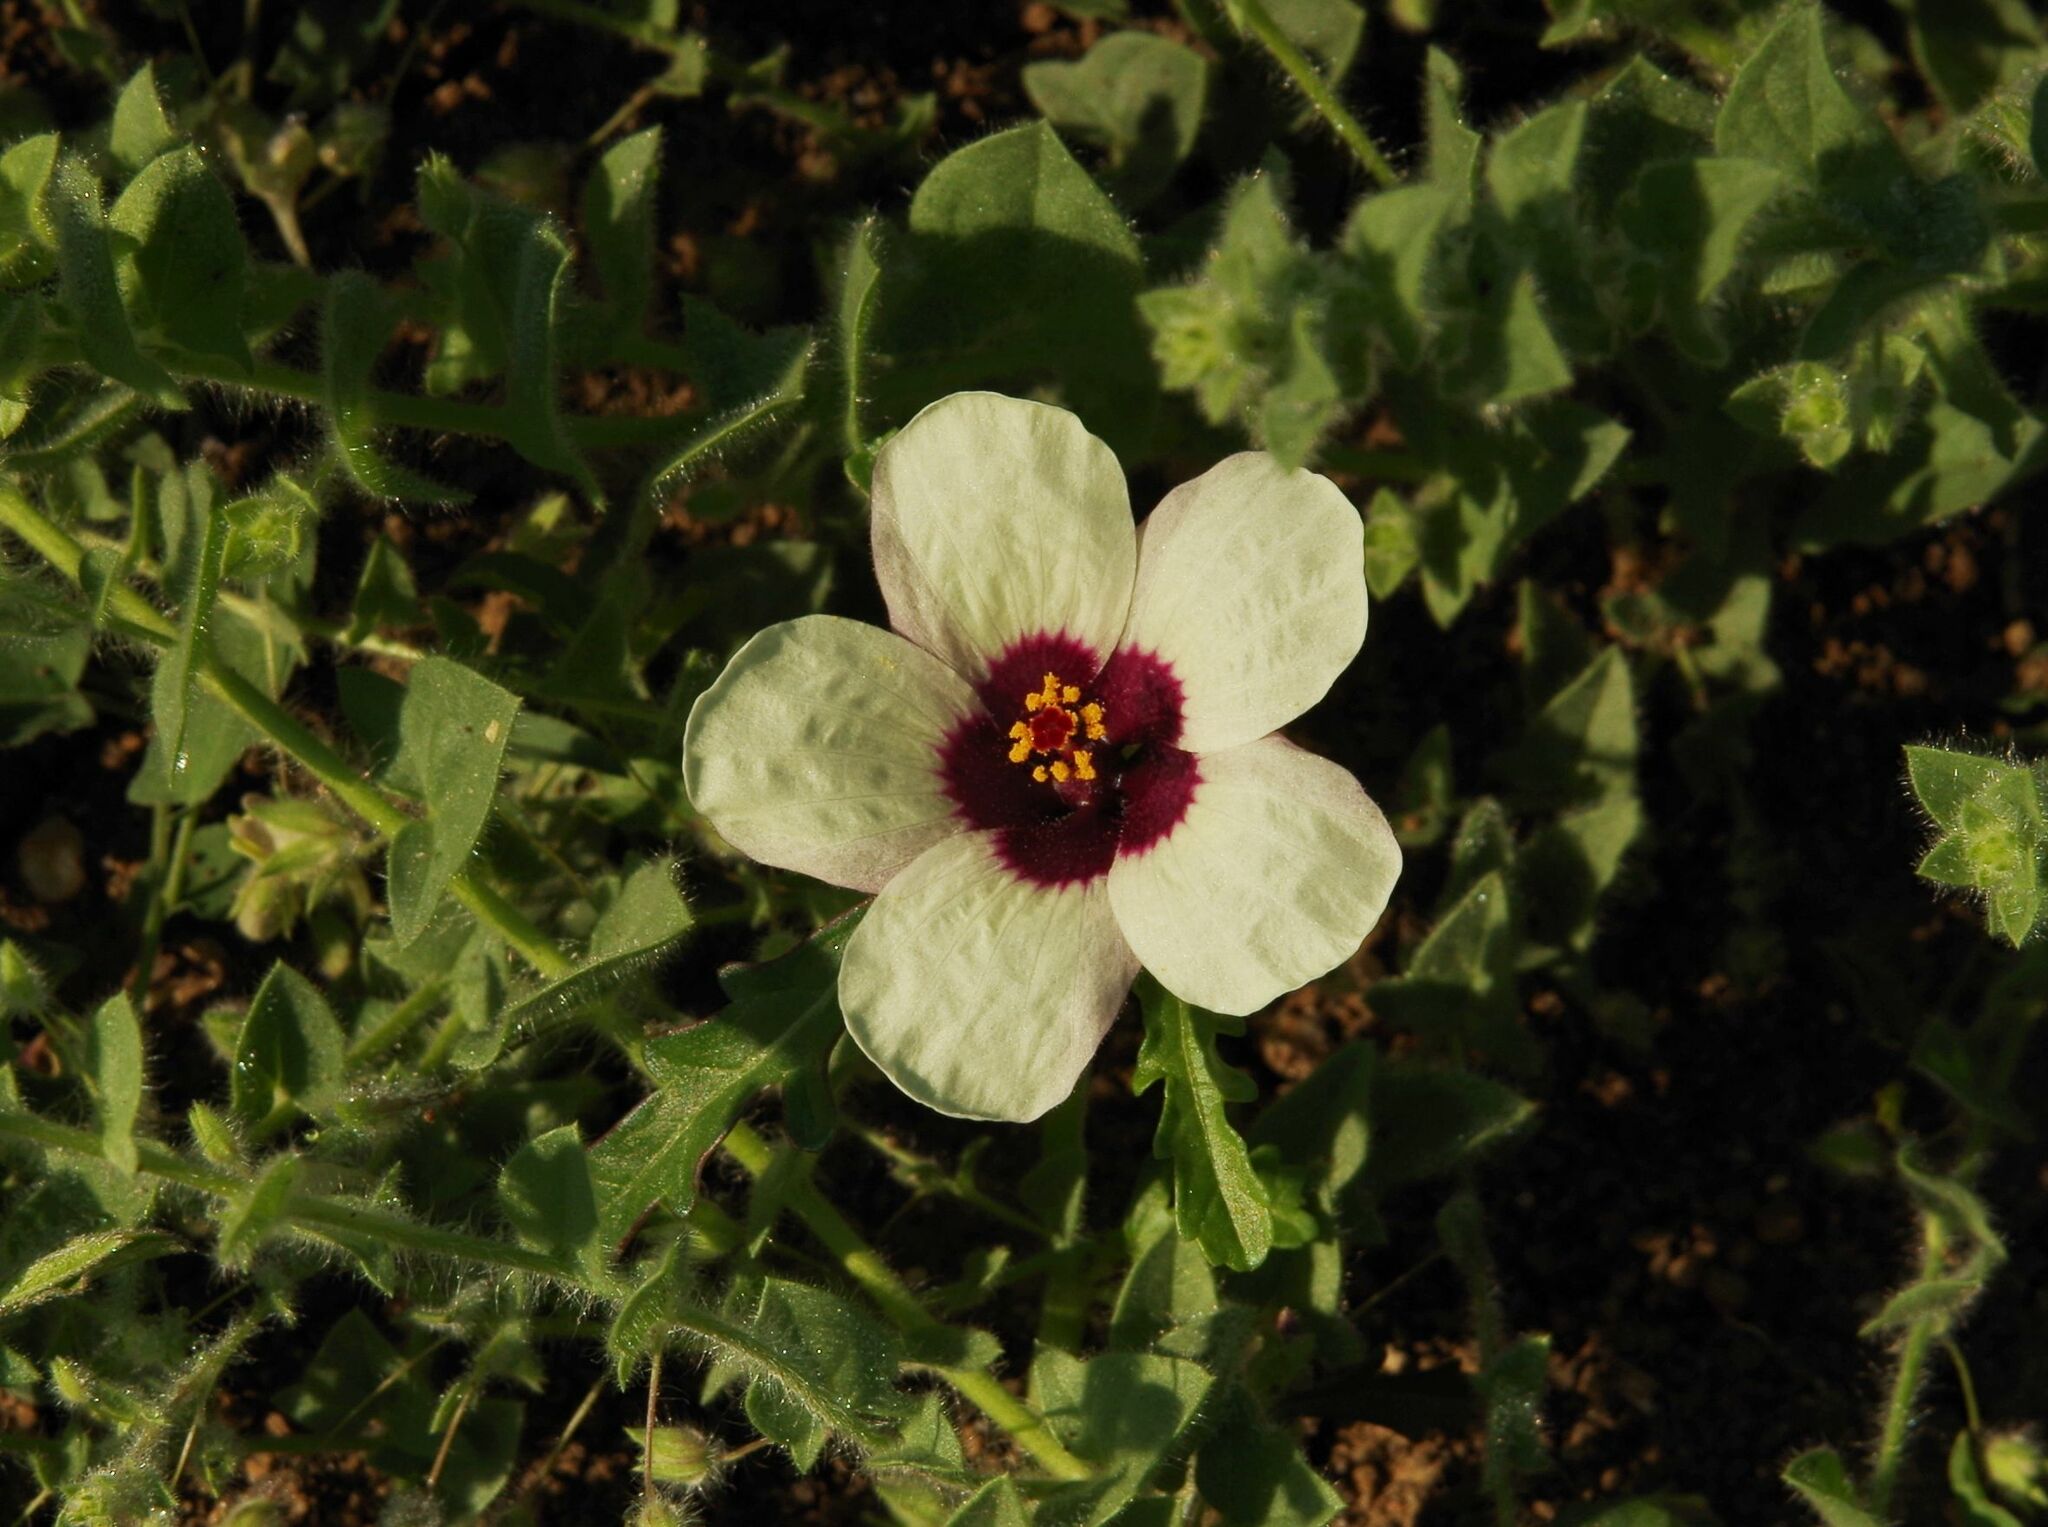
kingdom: Plantae
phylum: Tracheophyta
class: Magnoliopsida
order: Malvales
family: Malvaceae
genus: Hibiscus
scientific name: Hibiscus trionum
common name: Bladder ketmia
